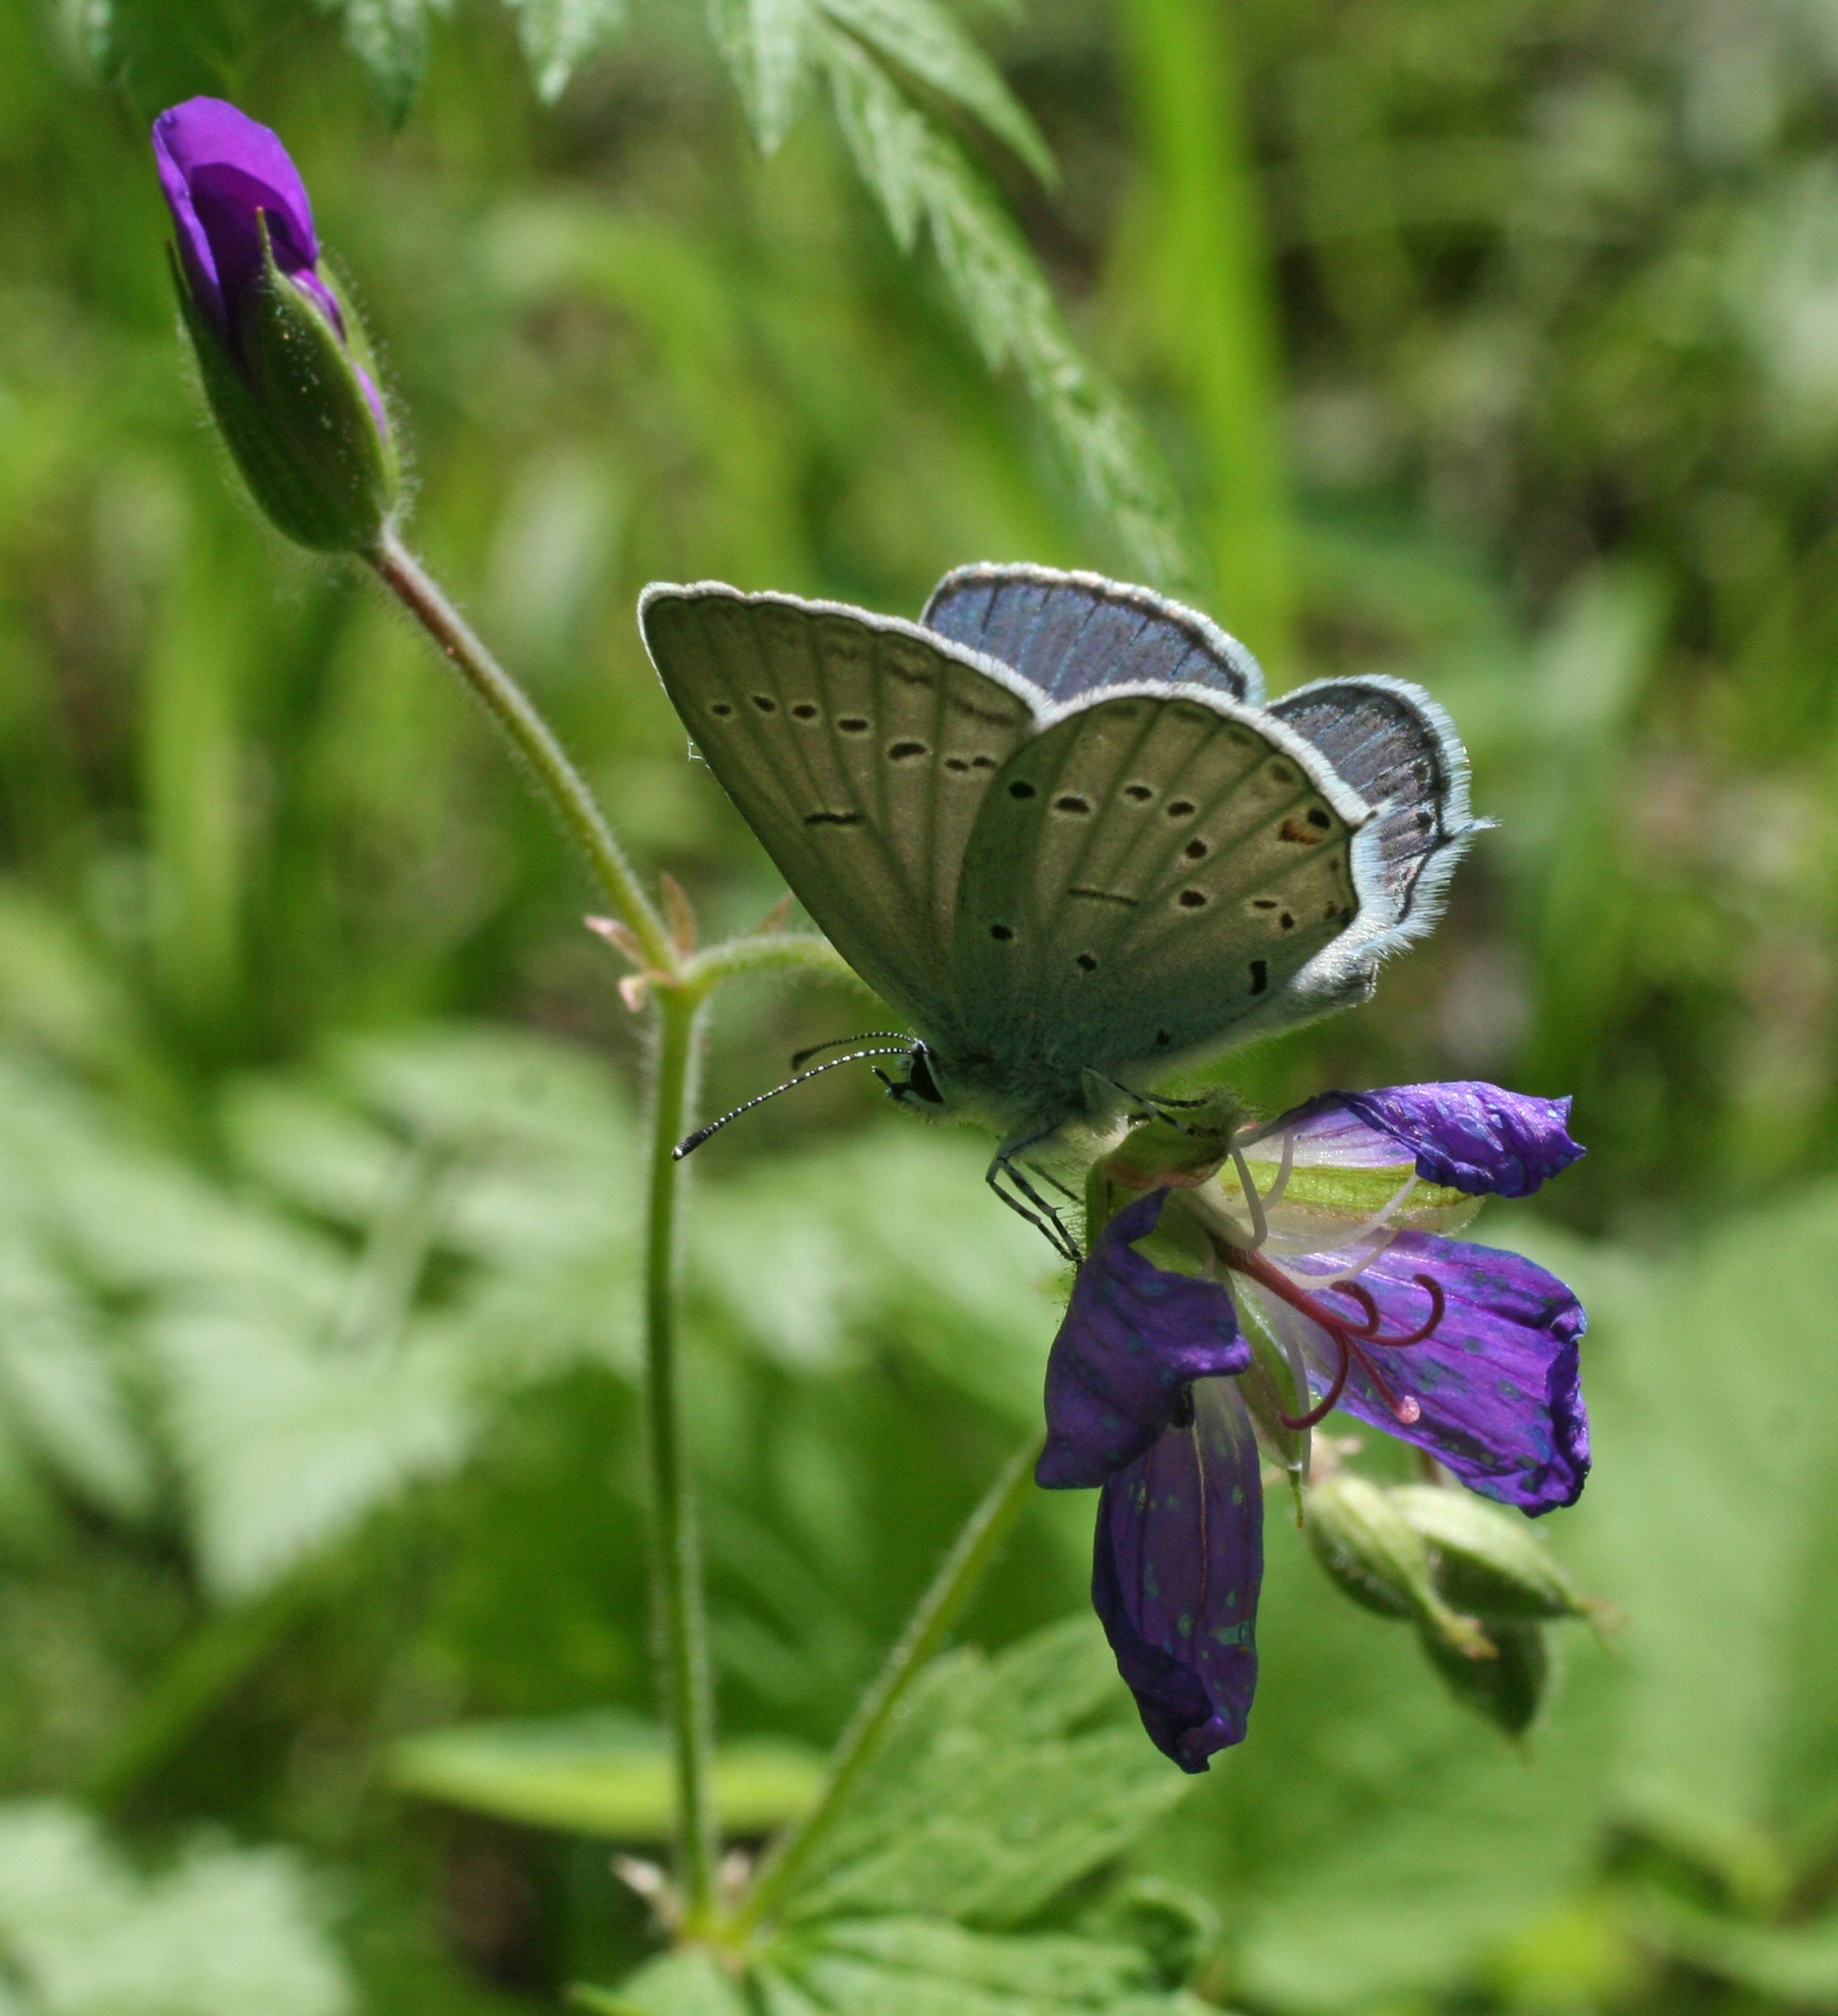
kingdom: Animalia
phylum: Arthropoda
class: Insecta
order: Lepidoptera
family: Lycaenidae
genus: Elkalyce
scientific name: Elkalyce alcetas
